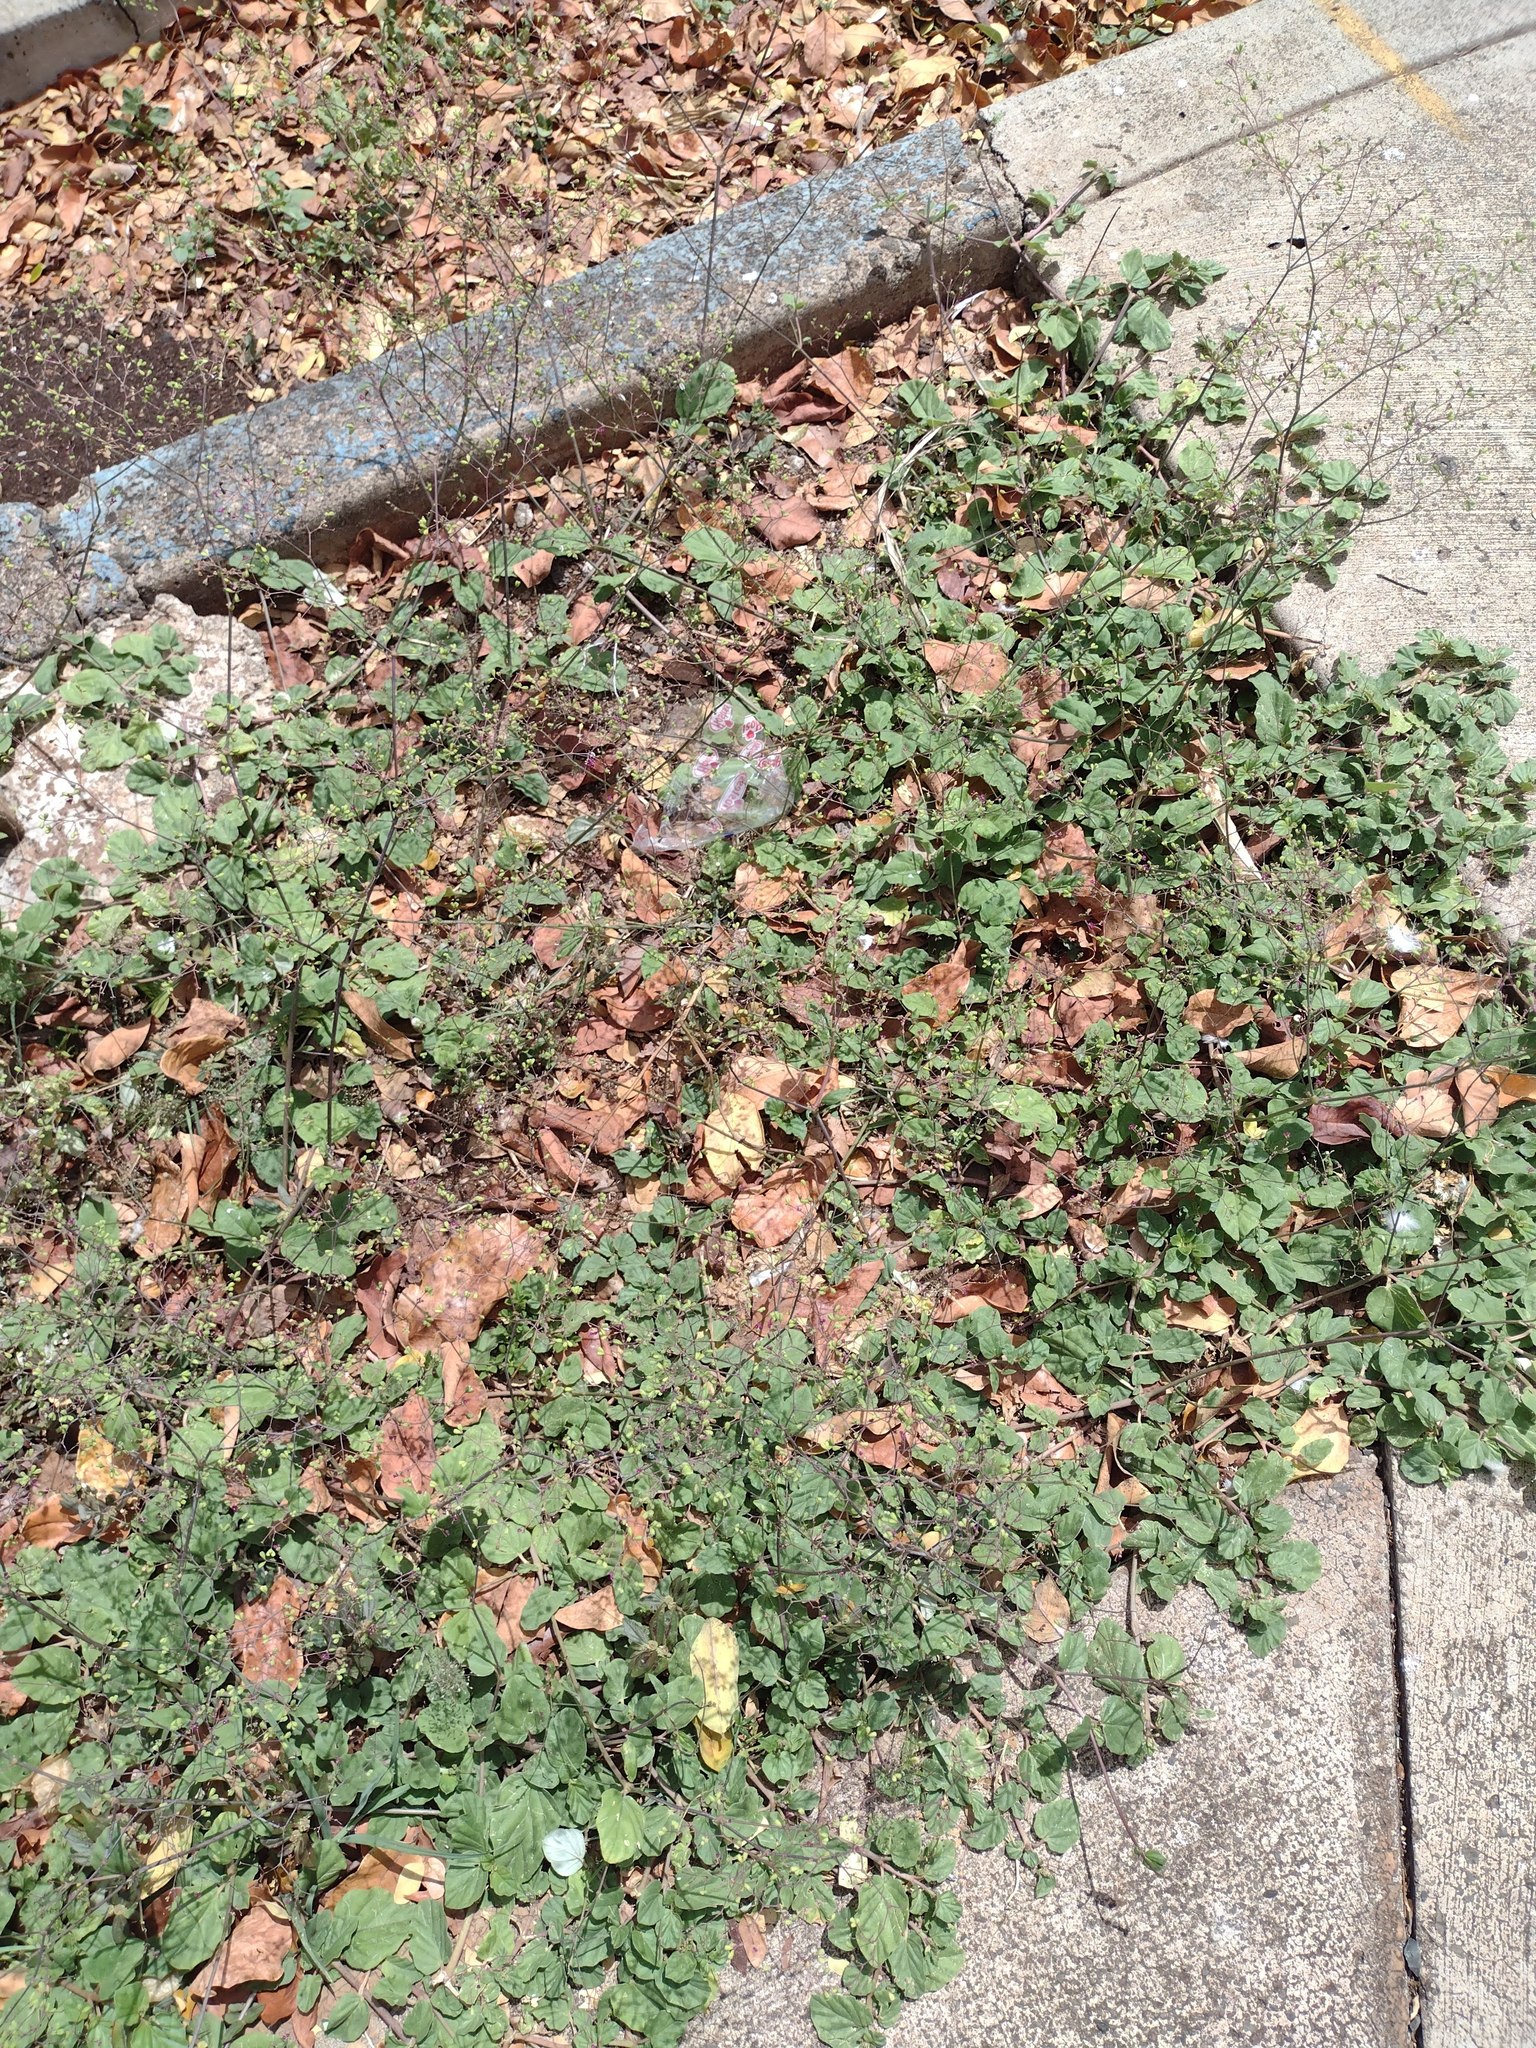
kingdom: Plantae
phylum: Tracheophyta
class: Magnoliopsida
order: Caryophyllales
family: Nyctaginaceae
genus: Boerhavia
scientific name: Boerhavia diffusa
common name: Red spiderling
